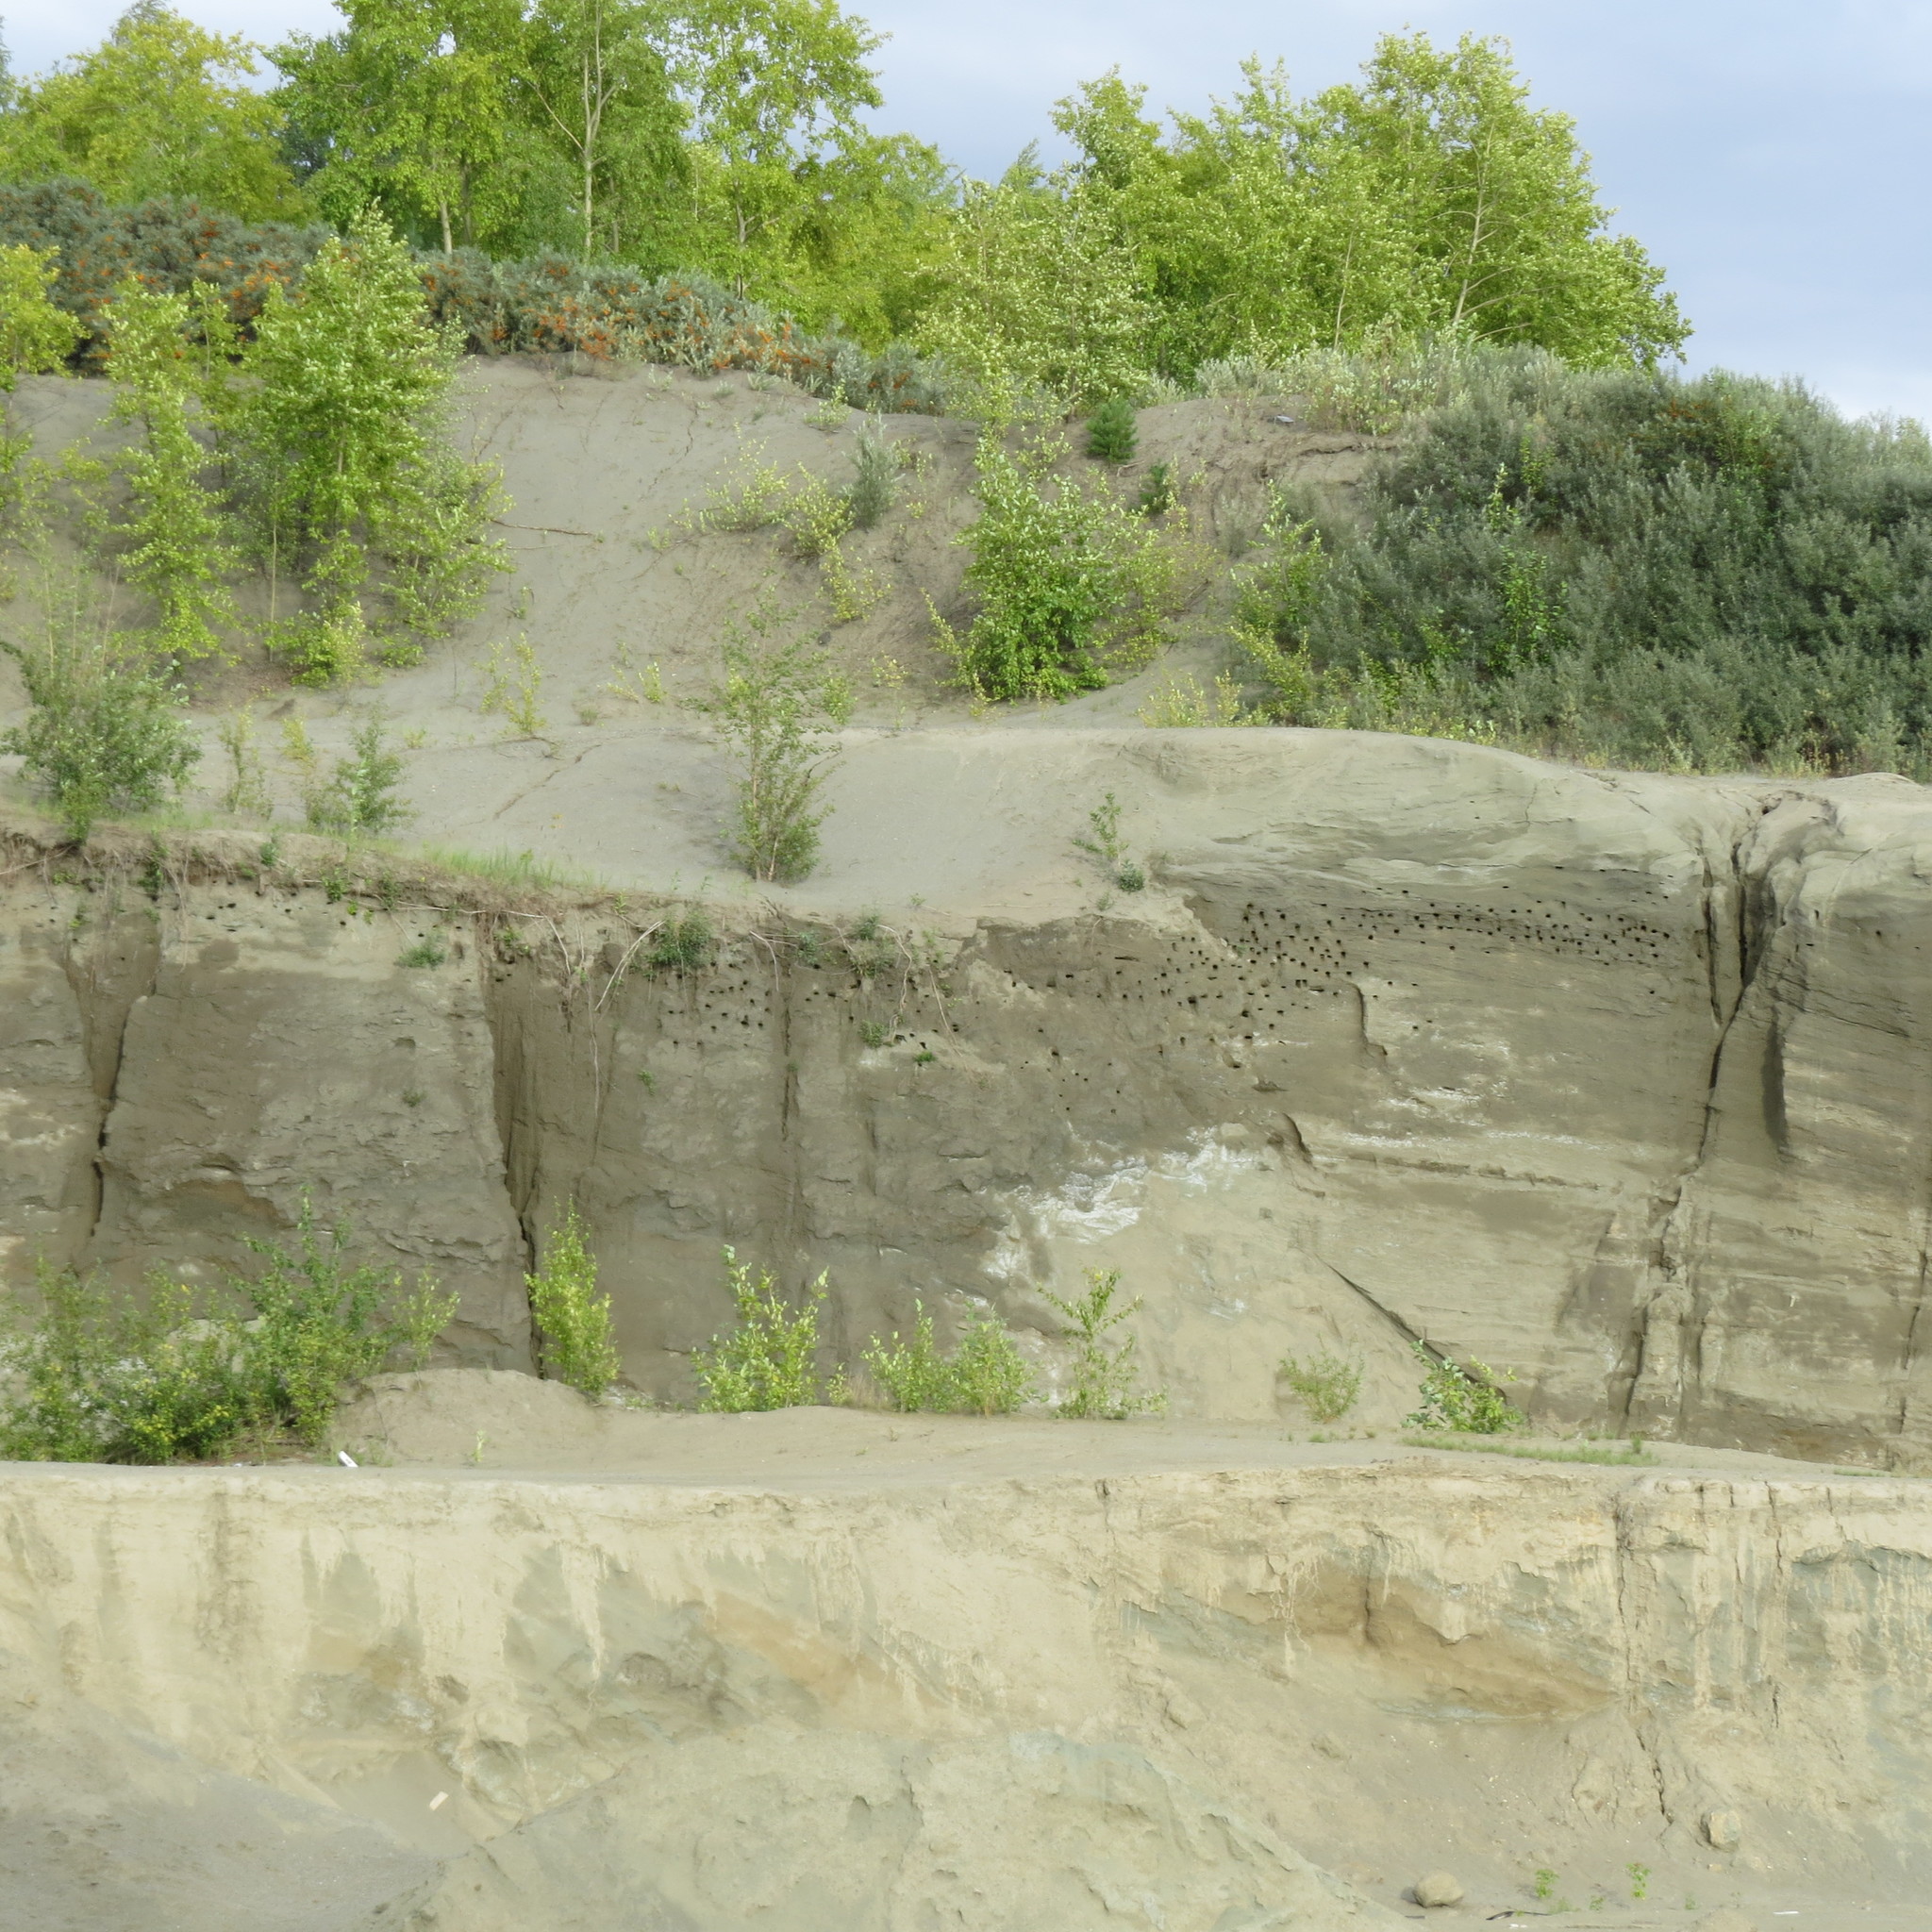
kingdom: Animalia
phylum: Chordata
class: Aves
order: Passeriformes
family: Hirundinidae
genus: Riparia
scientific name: Riparia riparia
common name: Sand martin
